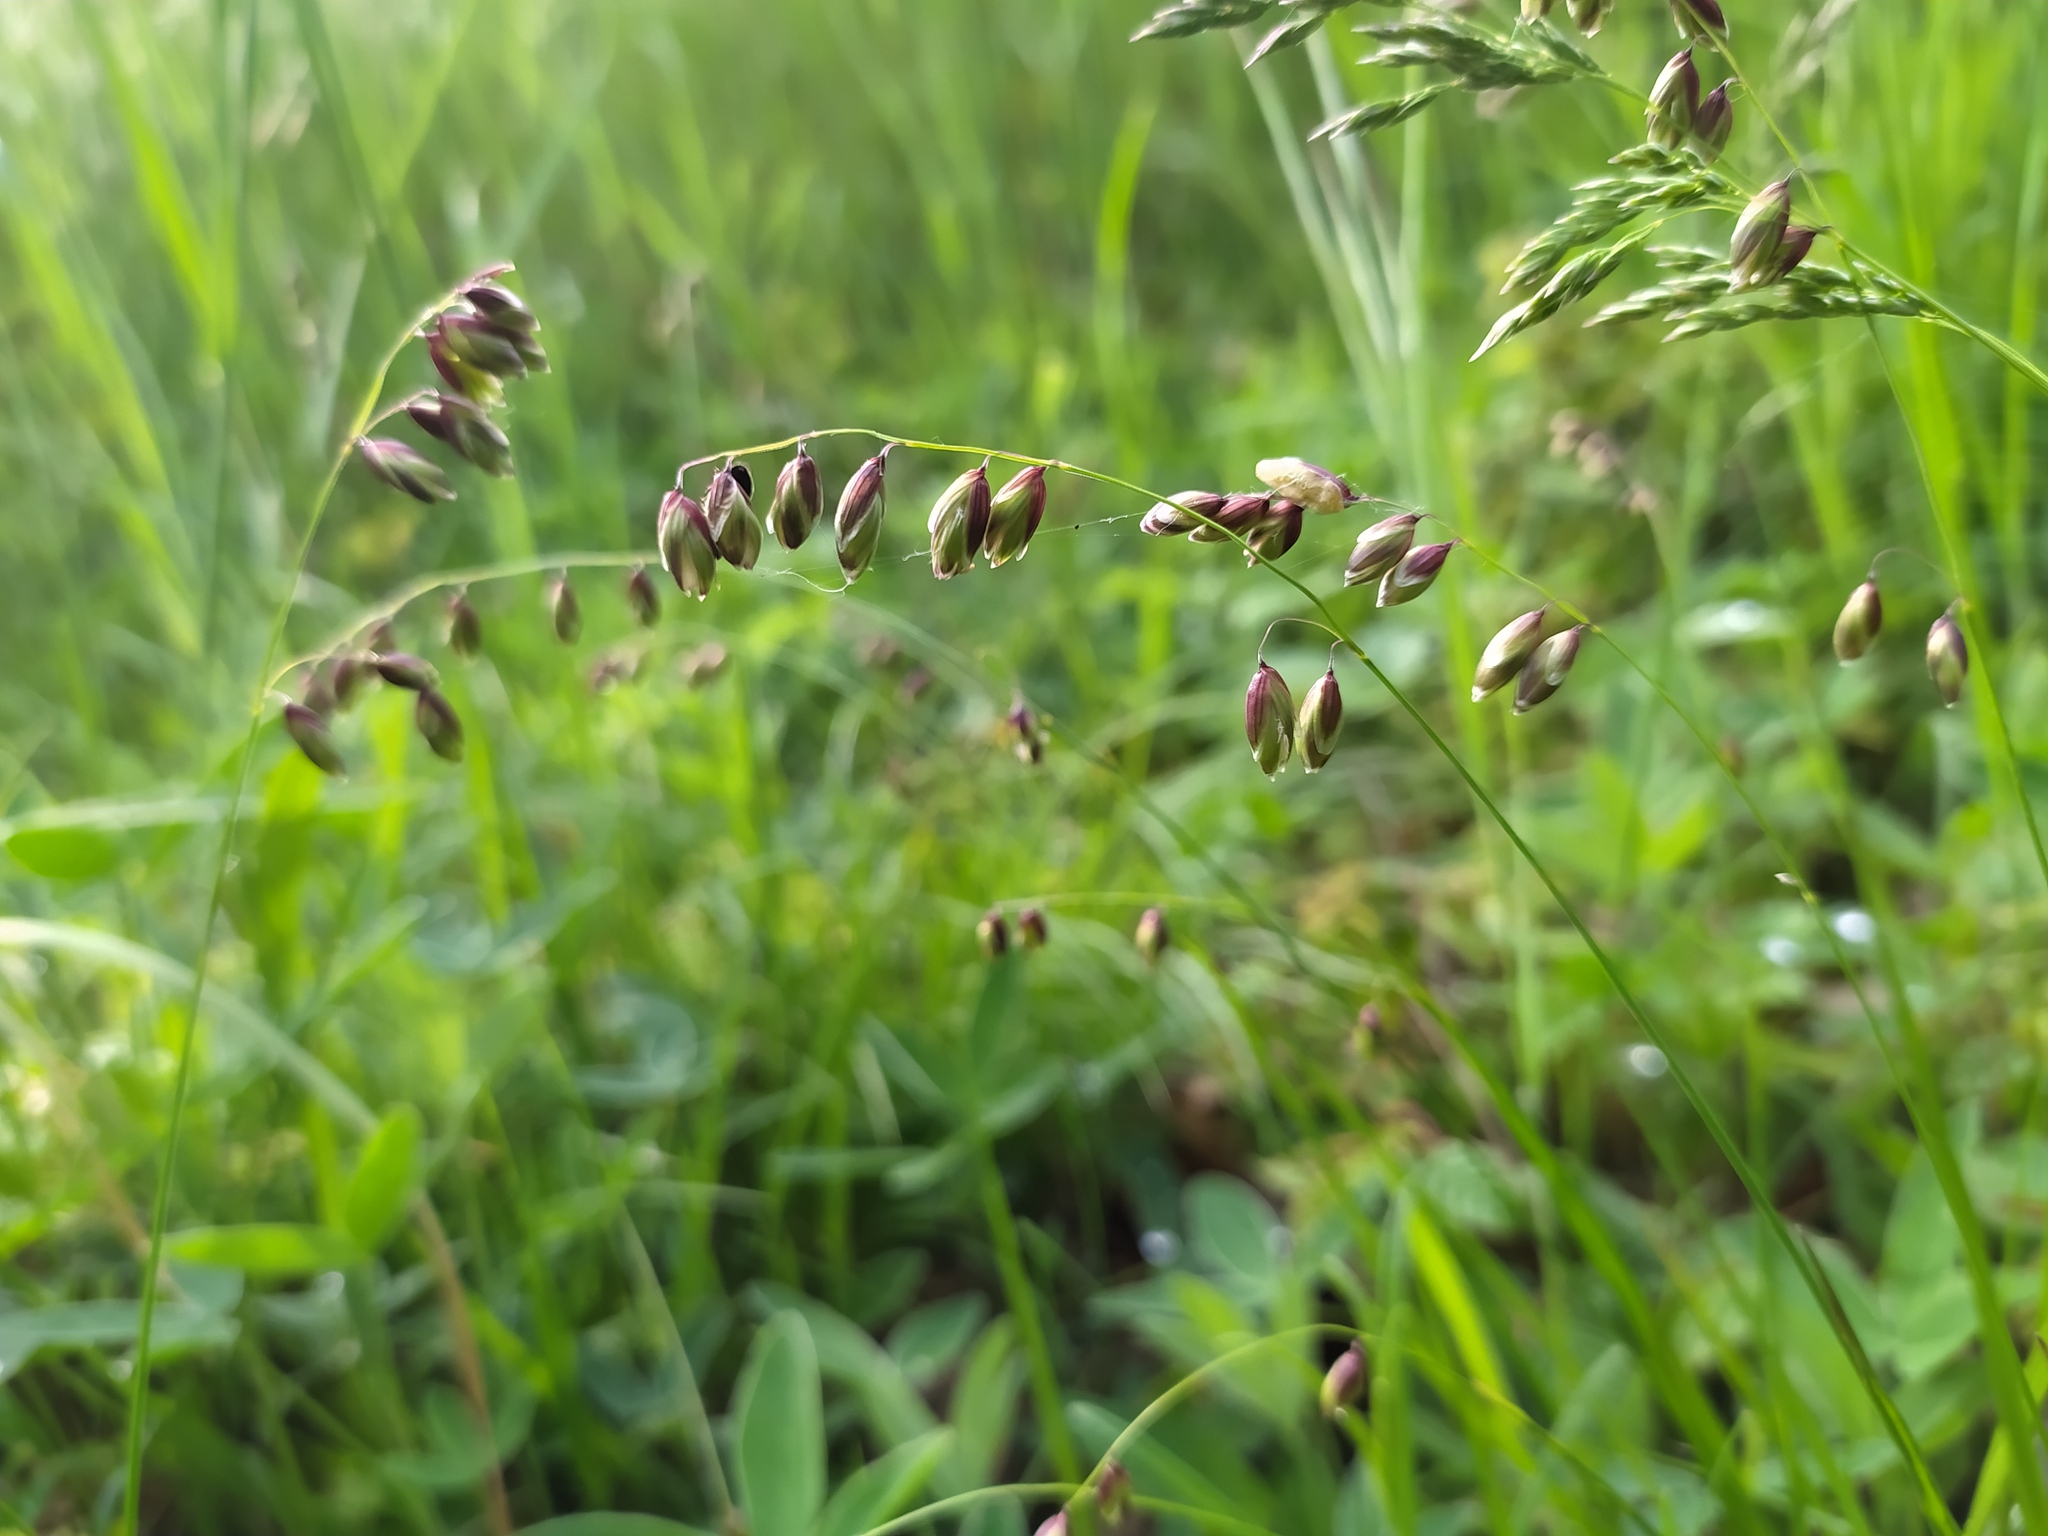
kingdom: Plantae
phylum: Tracheophyta
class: Liliopsida
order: Poales
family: Poaceae
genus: Melica
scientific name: Melica nutans
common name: Mountain melick
